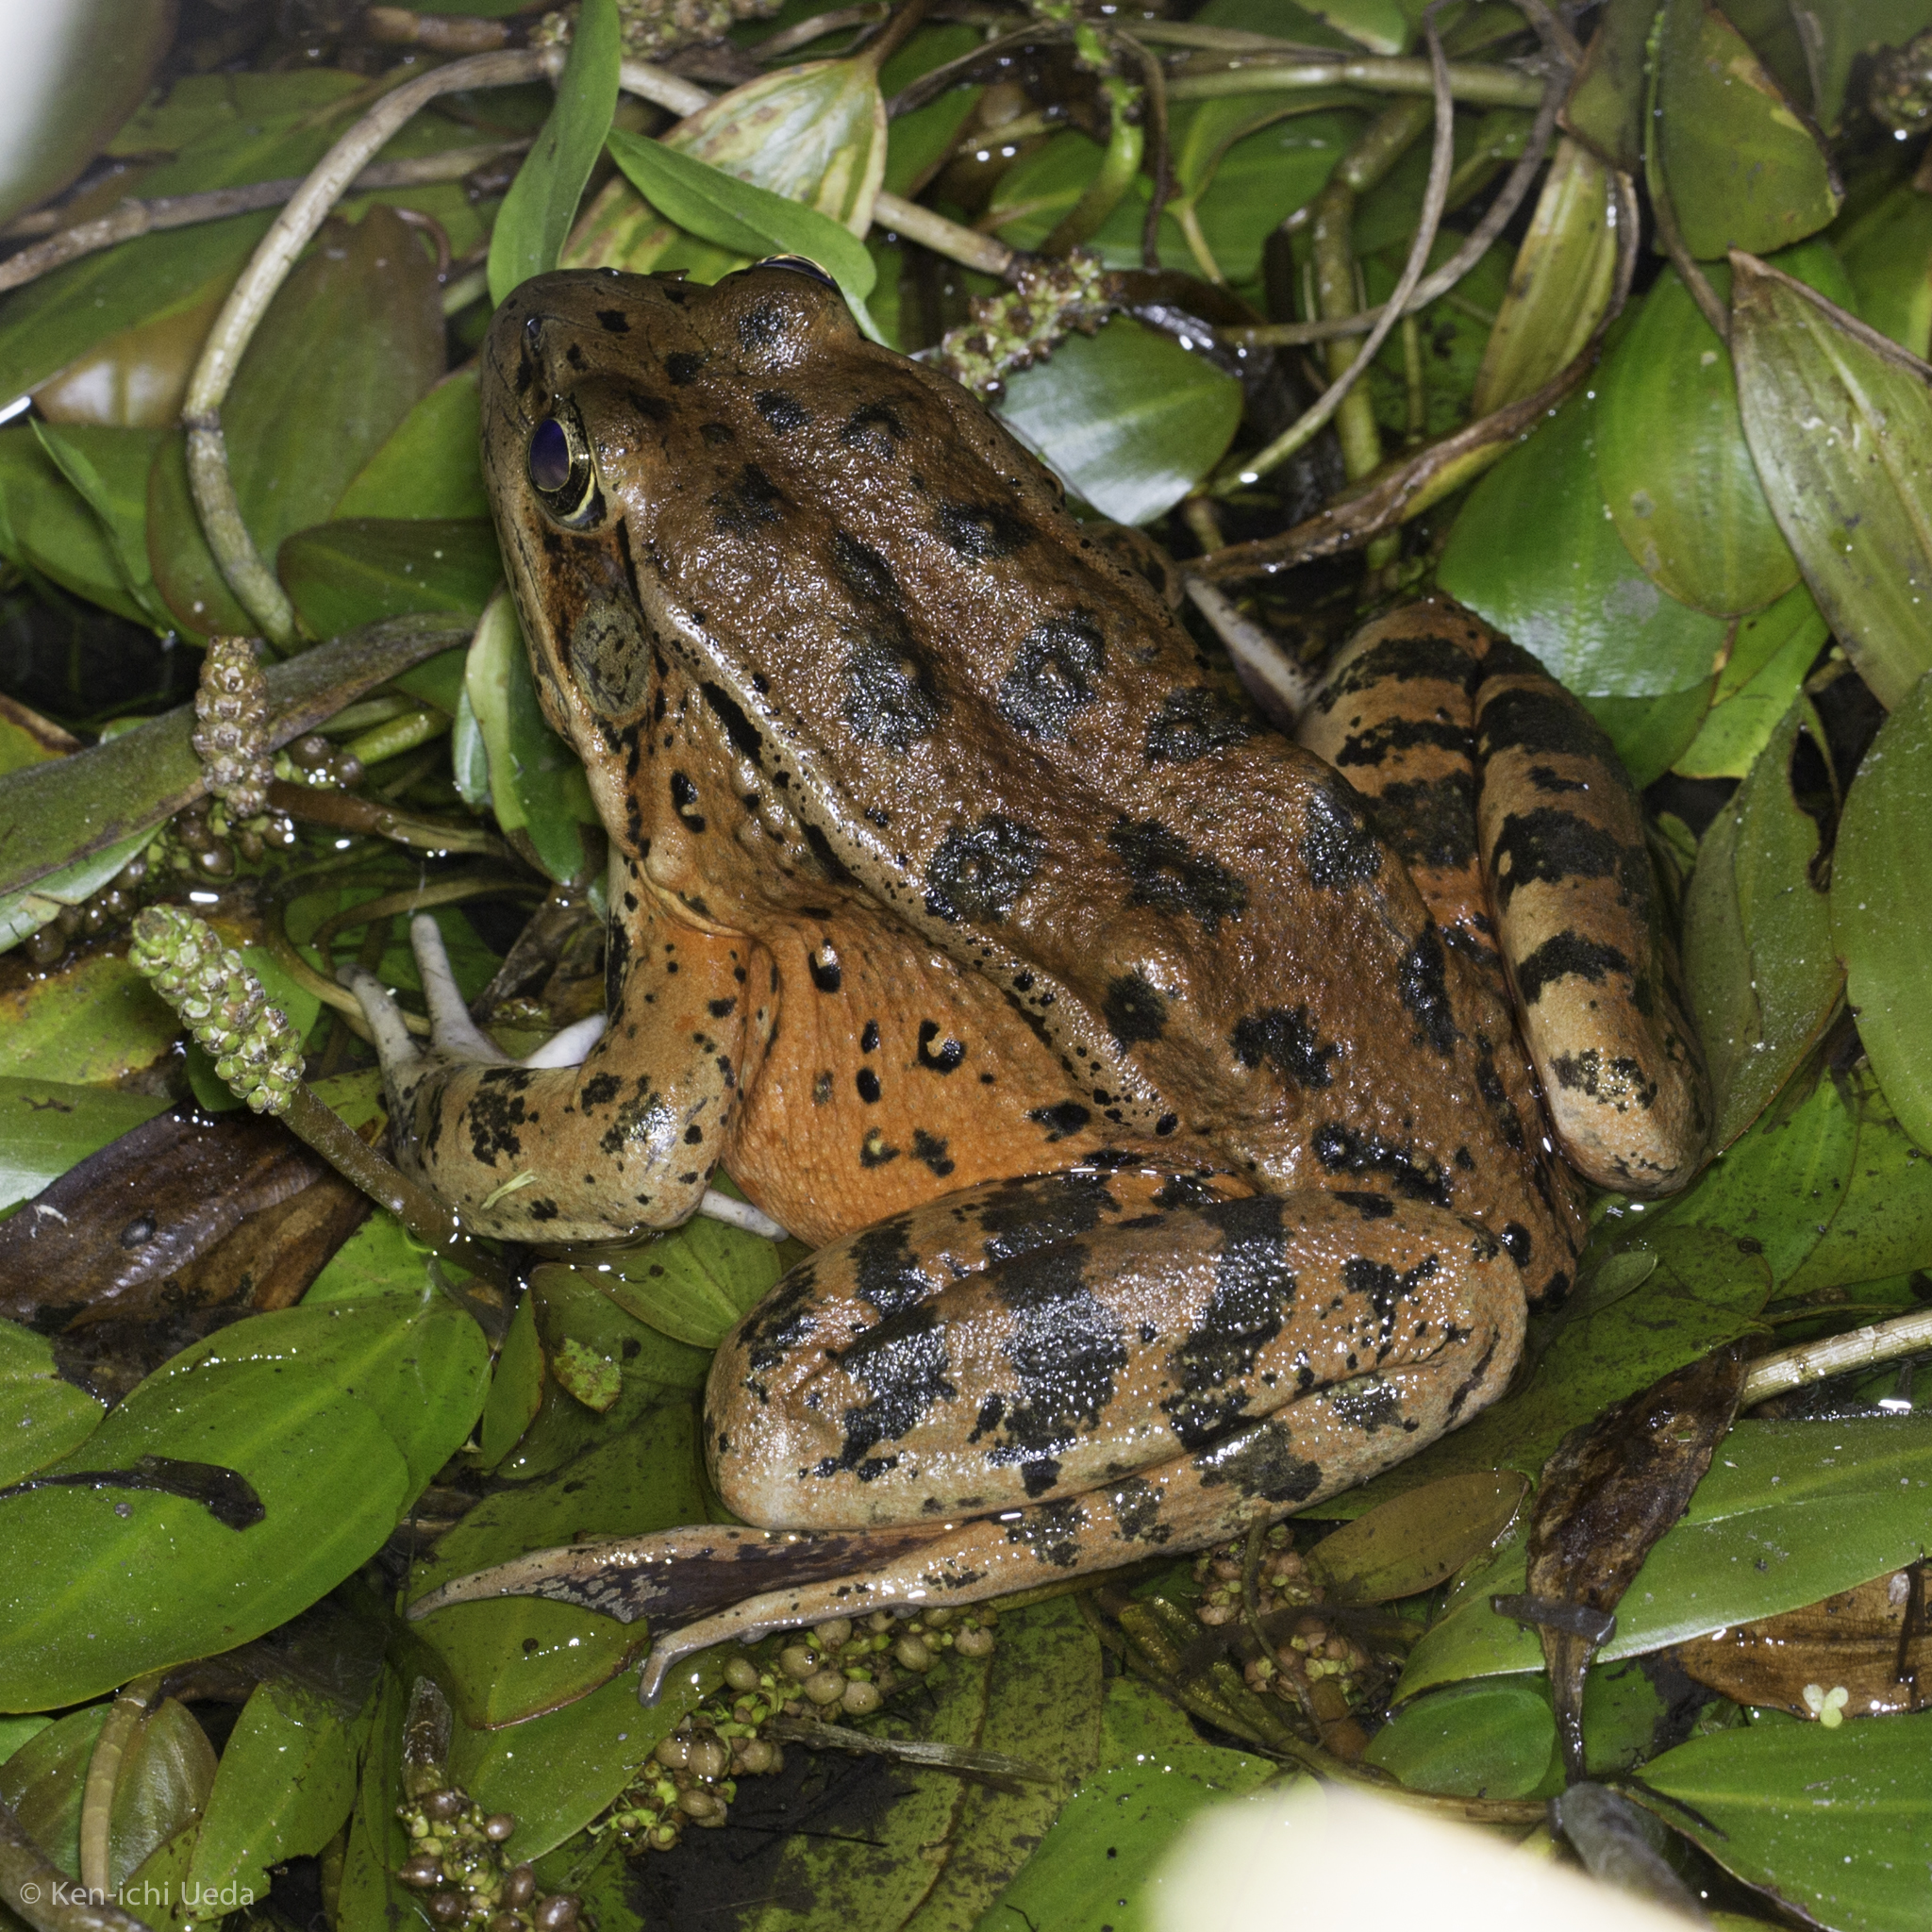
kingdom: Animalia
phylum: Chordata
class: Amphibia
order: Anura
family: Ranidae
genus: Rana
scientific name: Rana draytonii
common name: California red-legged frog
